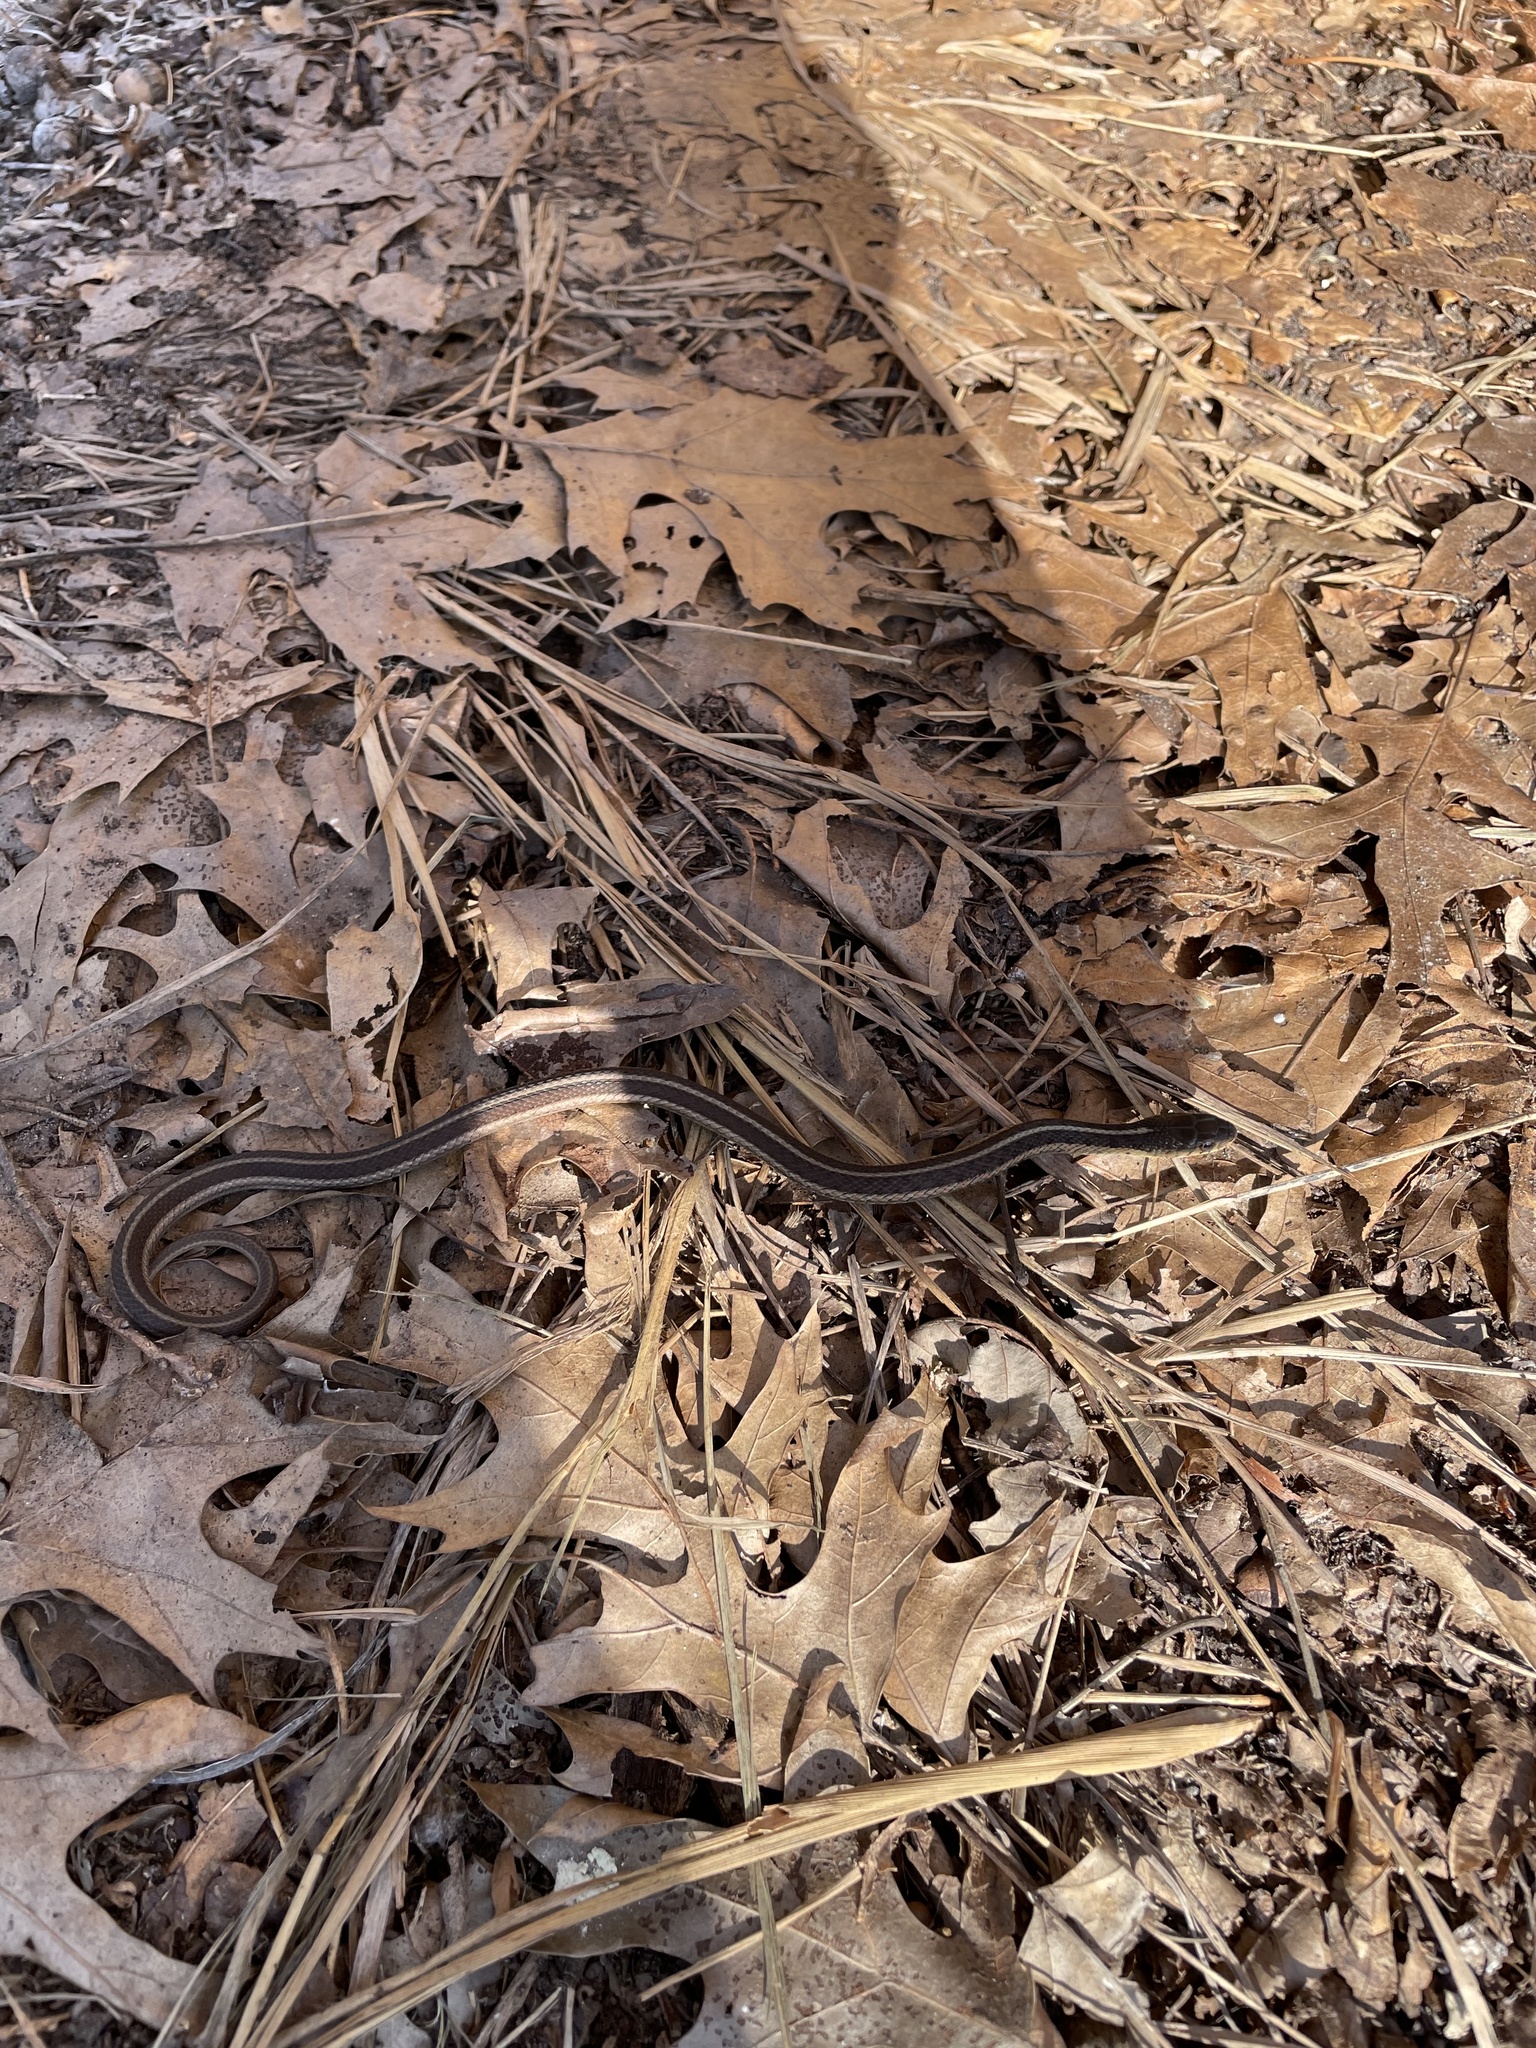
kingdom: Animalia
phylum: Chordata
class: Squamata
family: Colubridae
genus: Thamnophis
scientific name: Thamnophis sirtalis
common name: Common garter snake
